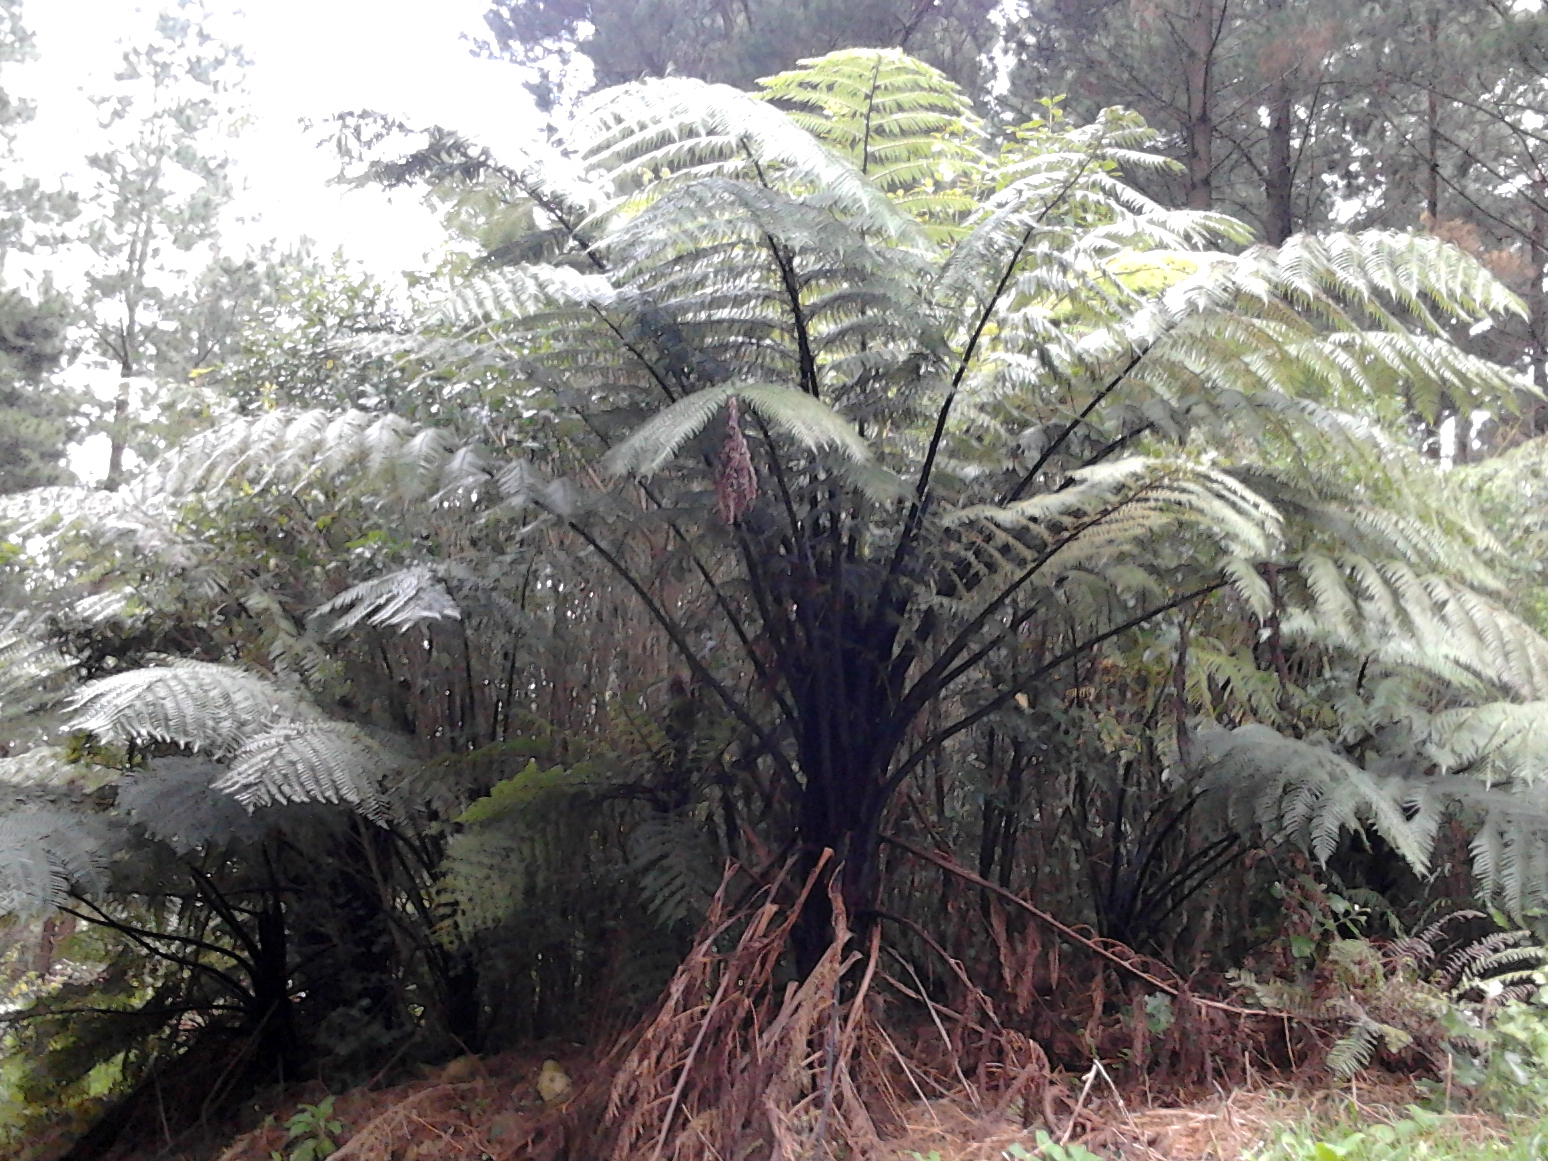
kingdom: Plantae
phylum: Tracheophyta
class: Polypodiopsida
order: Cyatheales
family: Cyatheaceae
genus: Sphaeropteris
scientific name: Sphaeropteris medullaris
